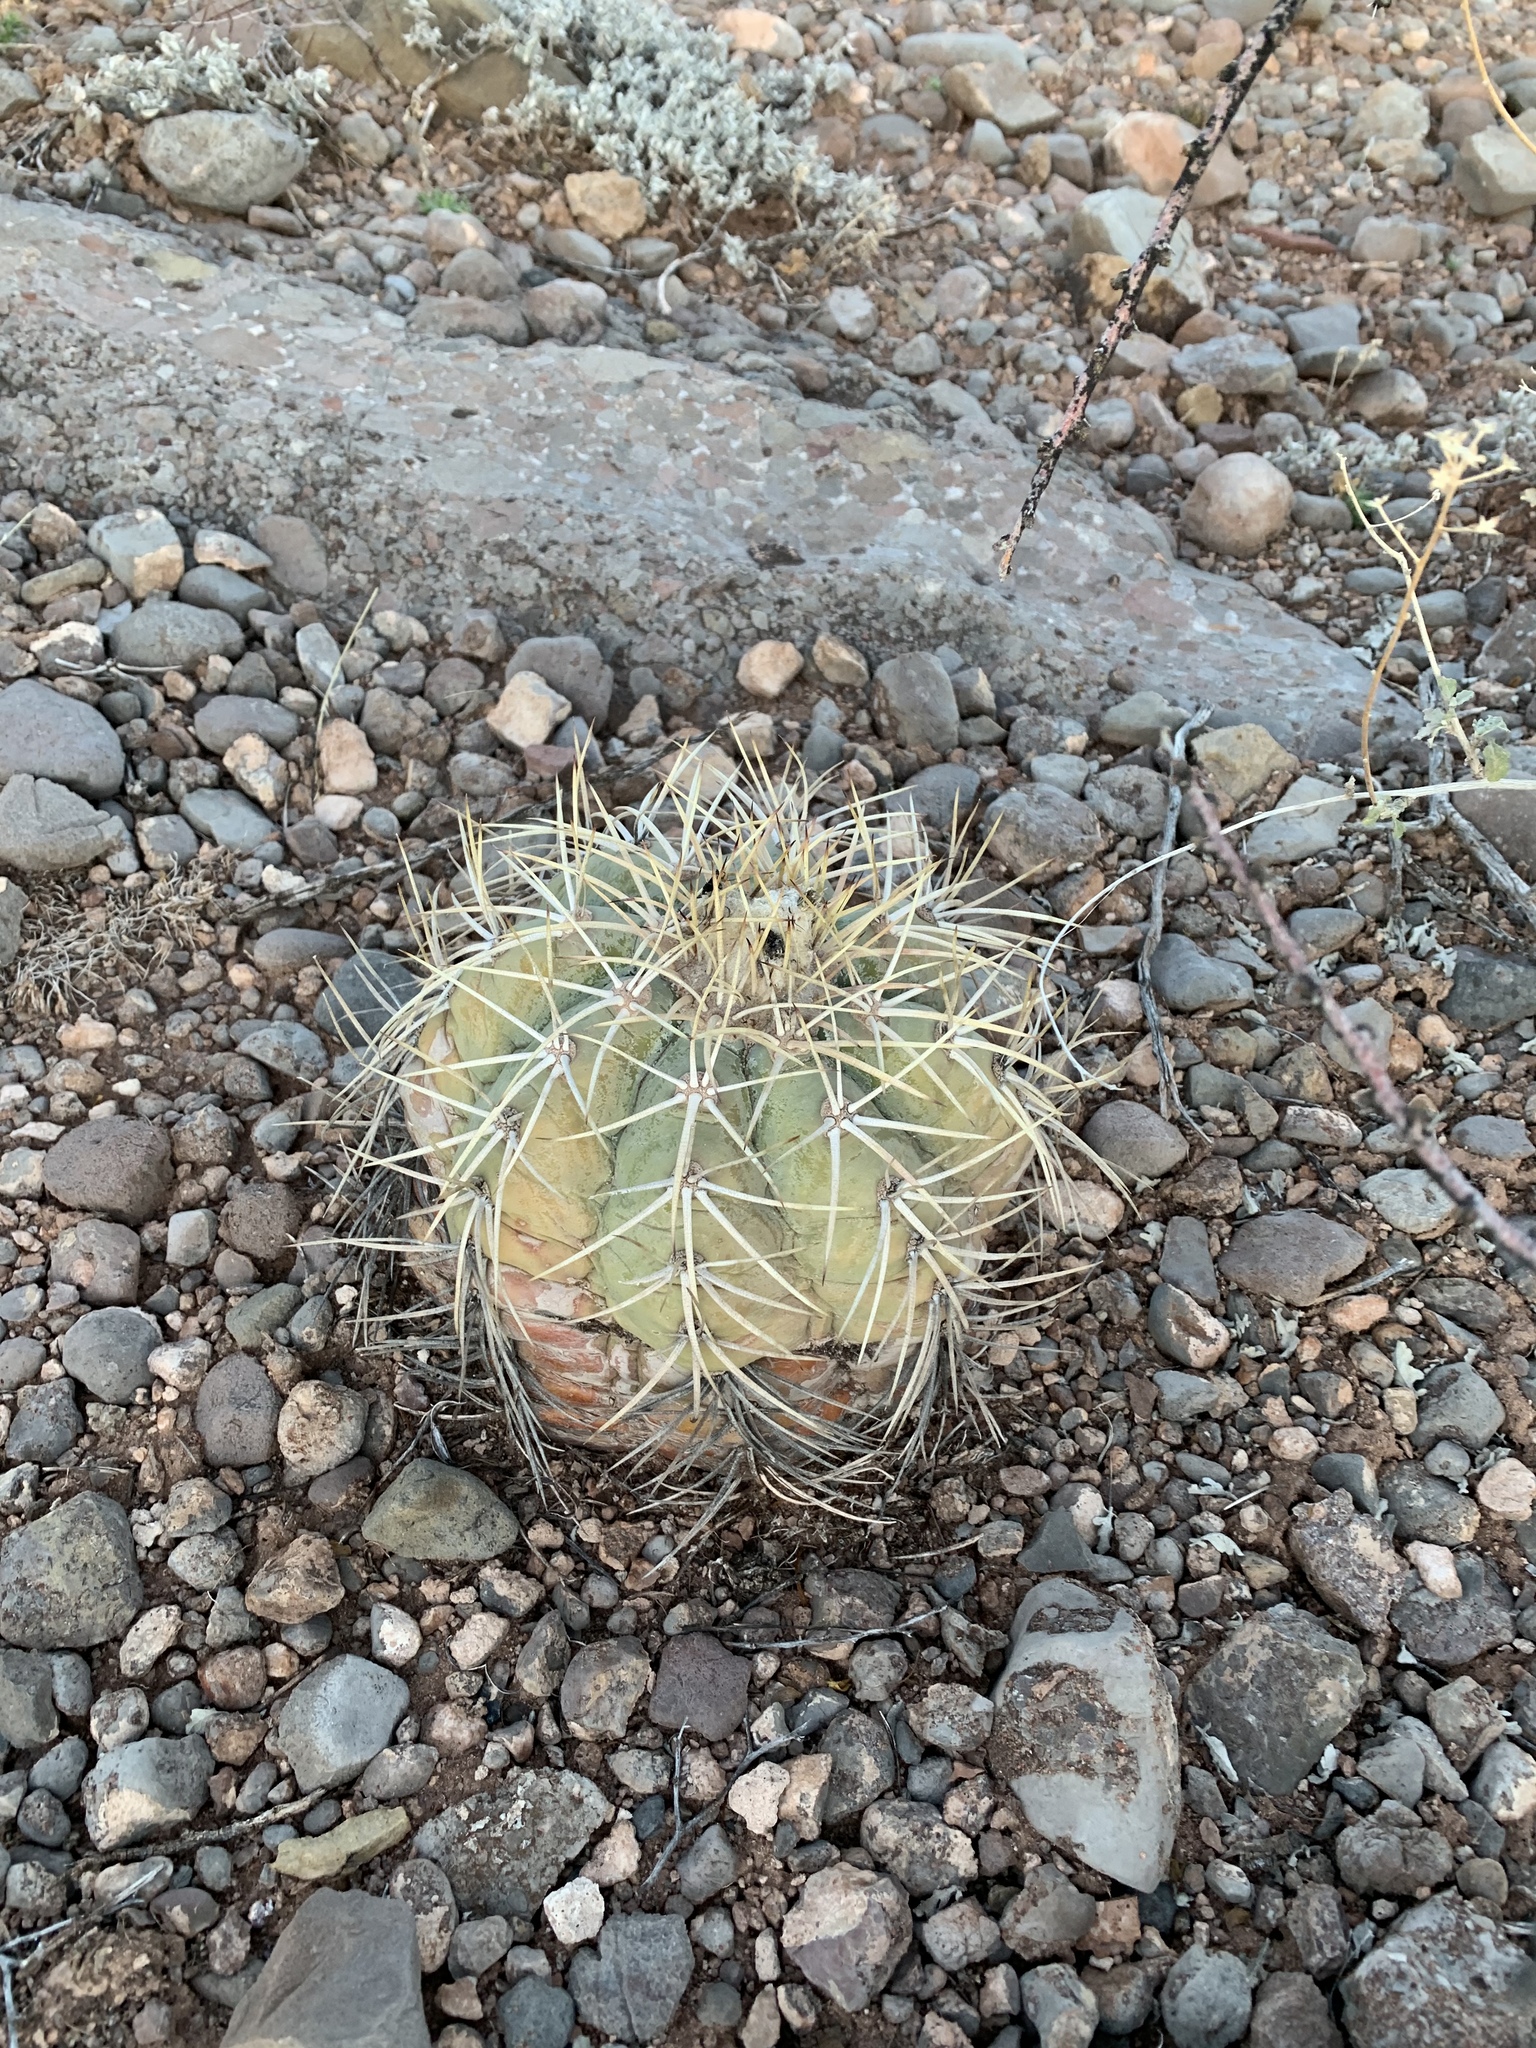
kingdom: Plantae
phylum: Tracheophyta
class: Magnoliopsida
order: Caryophyllales
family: Cactaceae
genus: Echinocactus
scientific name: Echinocactus horizonthalonius
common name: Devilshead
